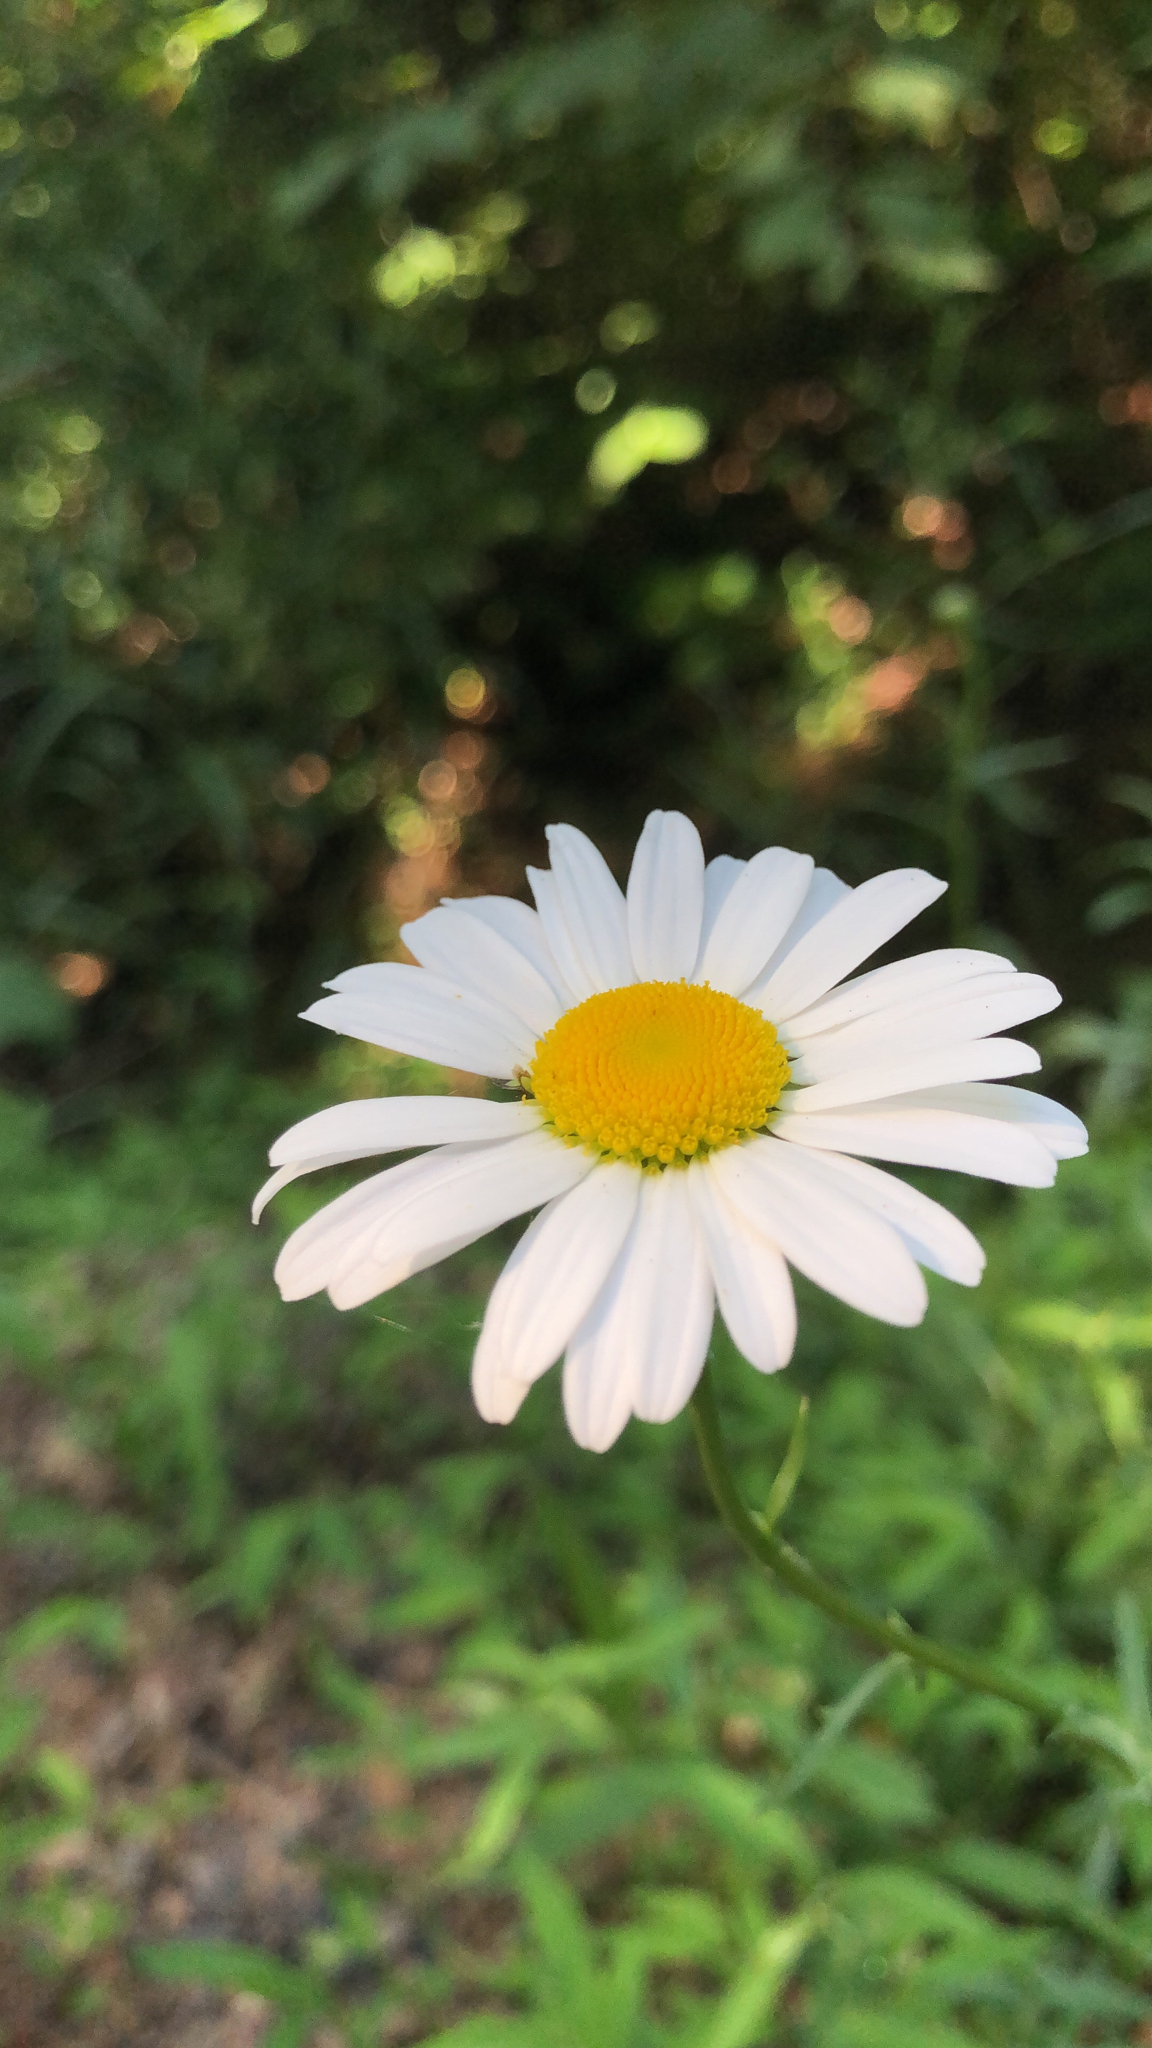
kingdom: Plantae
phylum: Tracheophyta
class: Magnoliopsida
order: Asterales
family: Asteraceae
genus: Leucanthemum
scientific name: Leucanthemum vulgare
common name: Oxeye daisy
